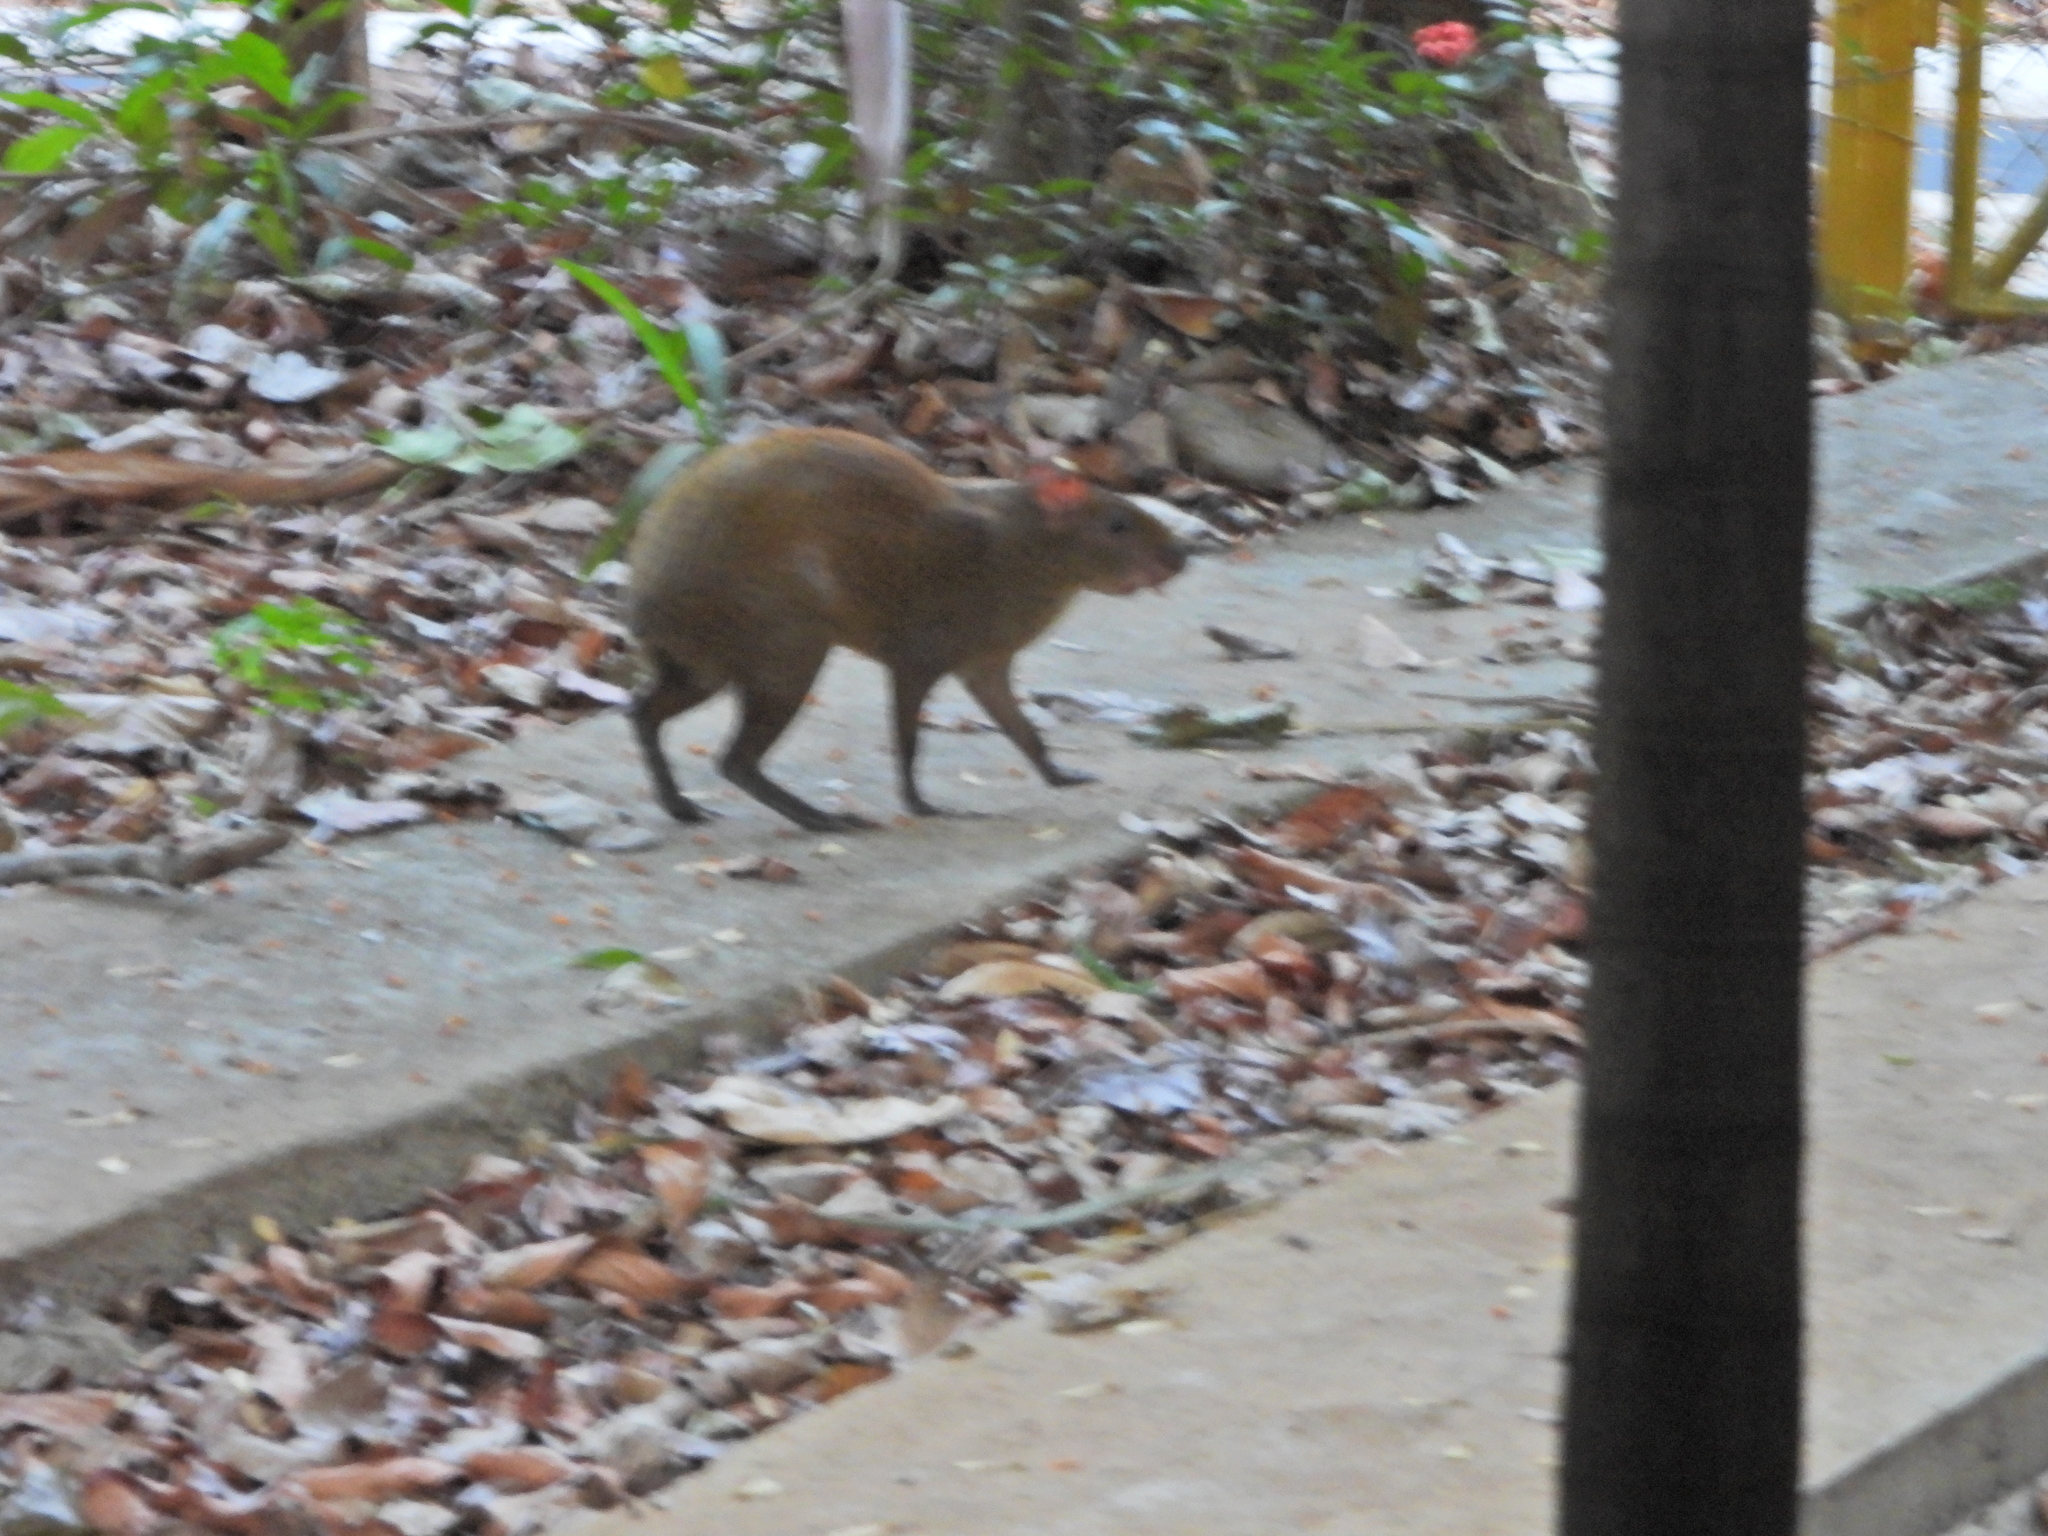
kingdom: Animalia
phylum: Chordata
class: Mammalia
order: Rodentia
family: Dasyproctidae
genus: Dasyprocta
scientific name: Dasyprocta punctata
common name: Central american agouti
